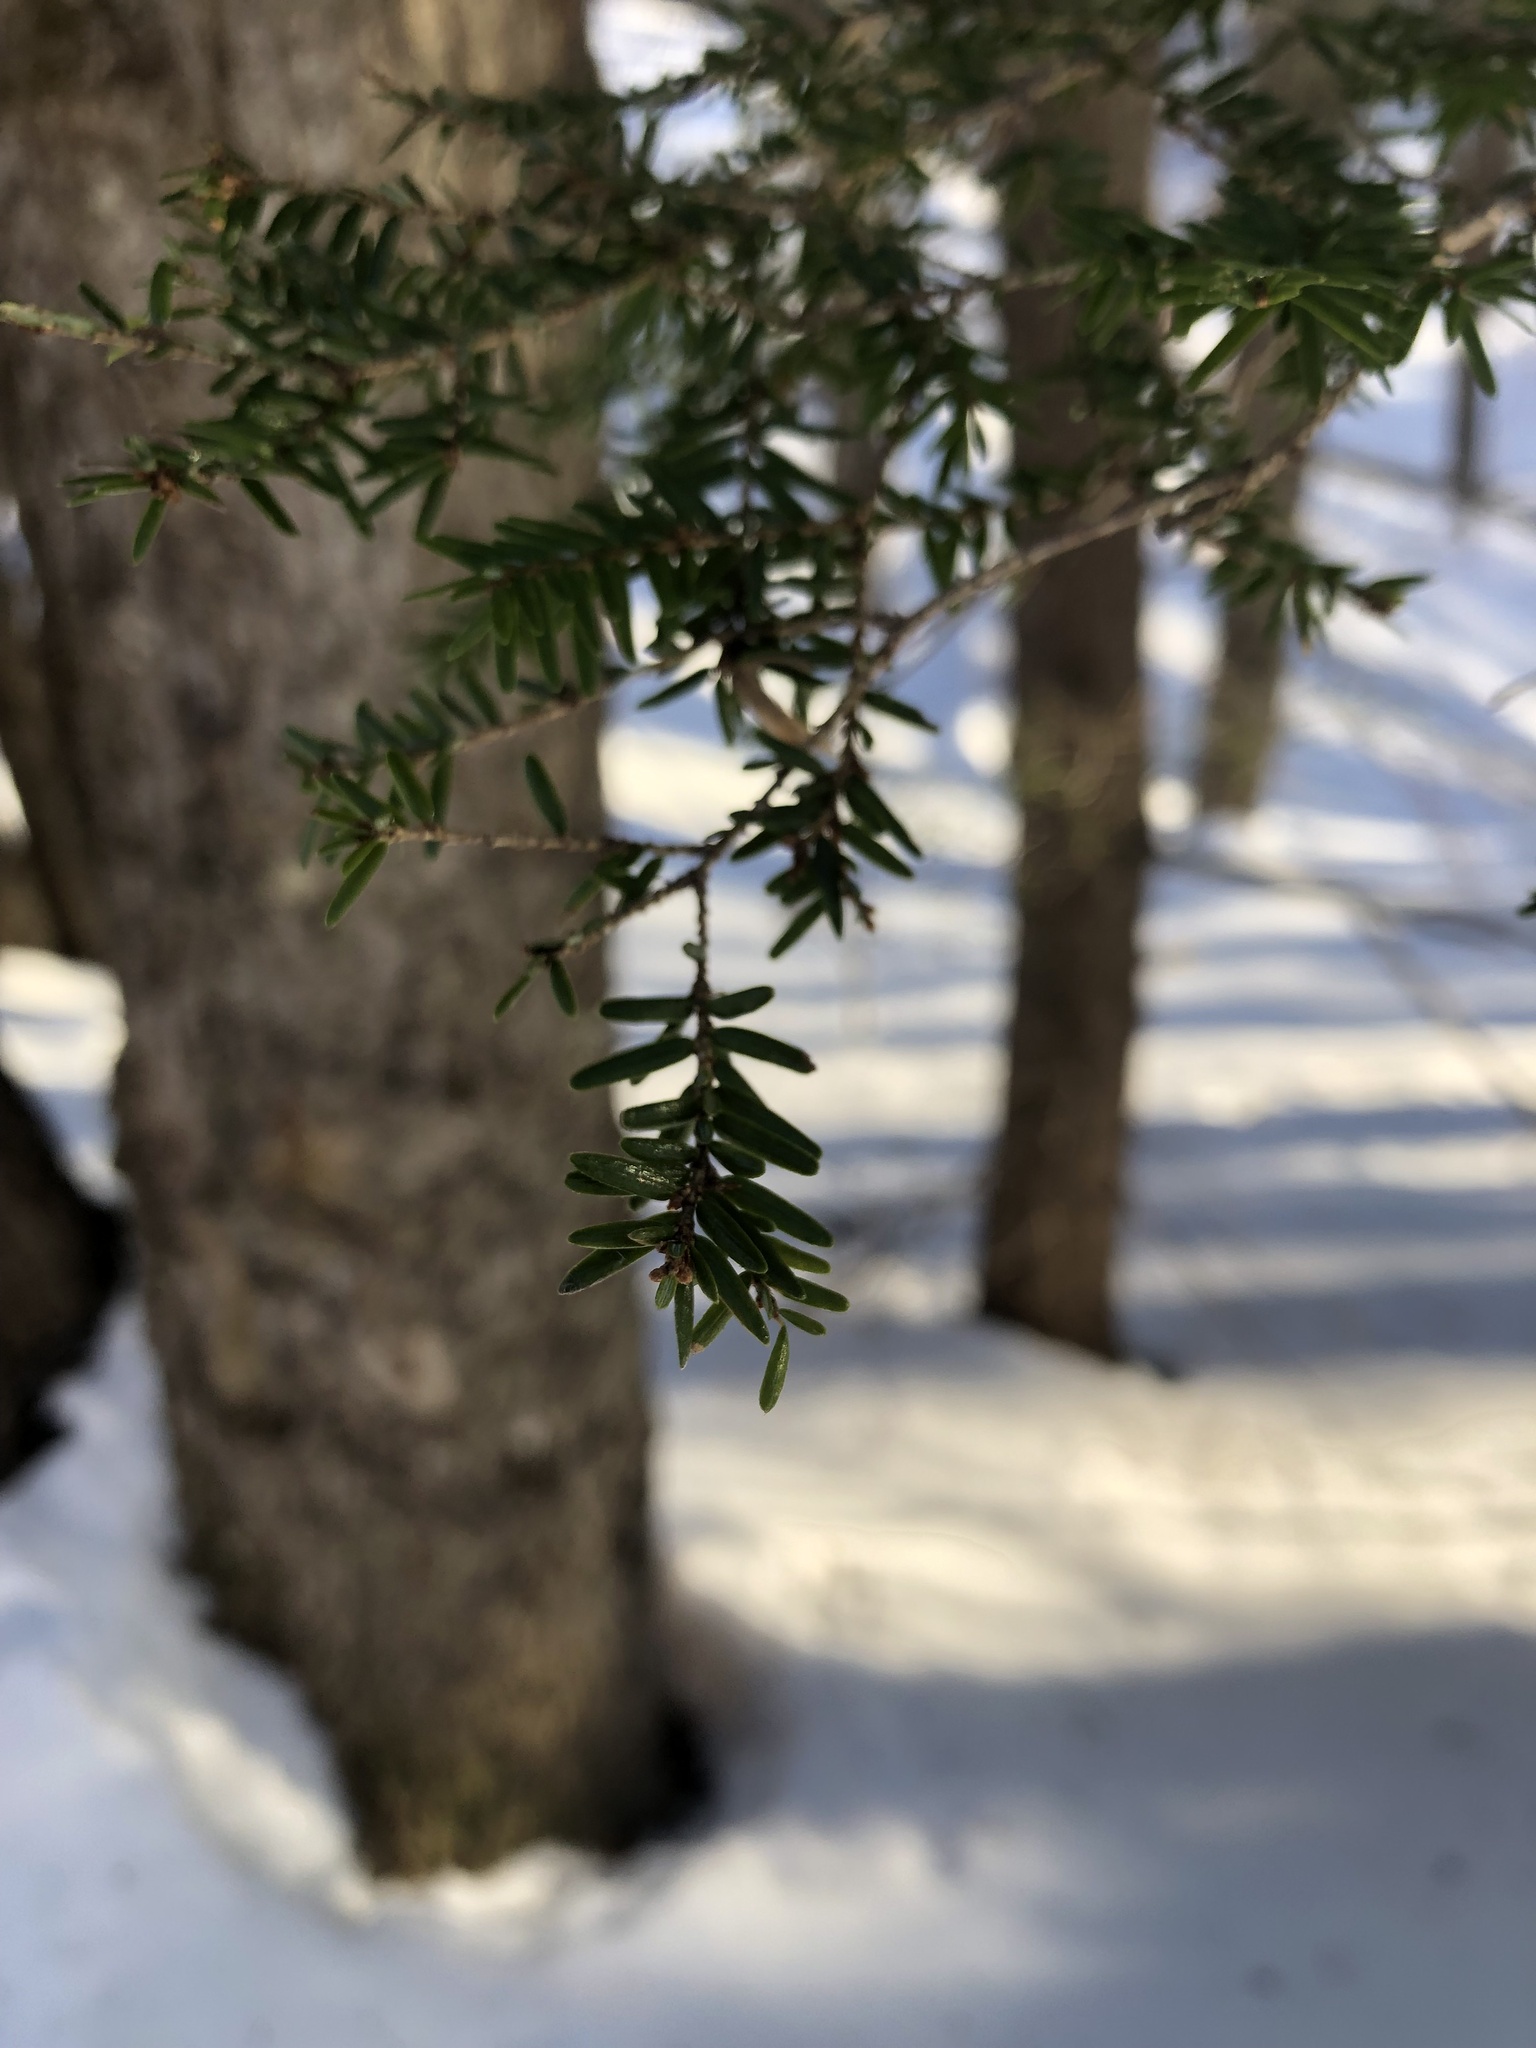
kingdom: Plantae
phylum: Tracheophyta
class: Pinopsida
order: Pinales
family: Pinaceae
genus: Tsuga
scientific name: Tsuga canadensis
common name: Eastern hemlock
